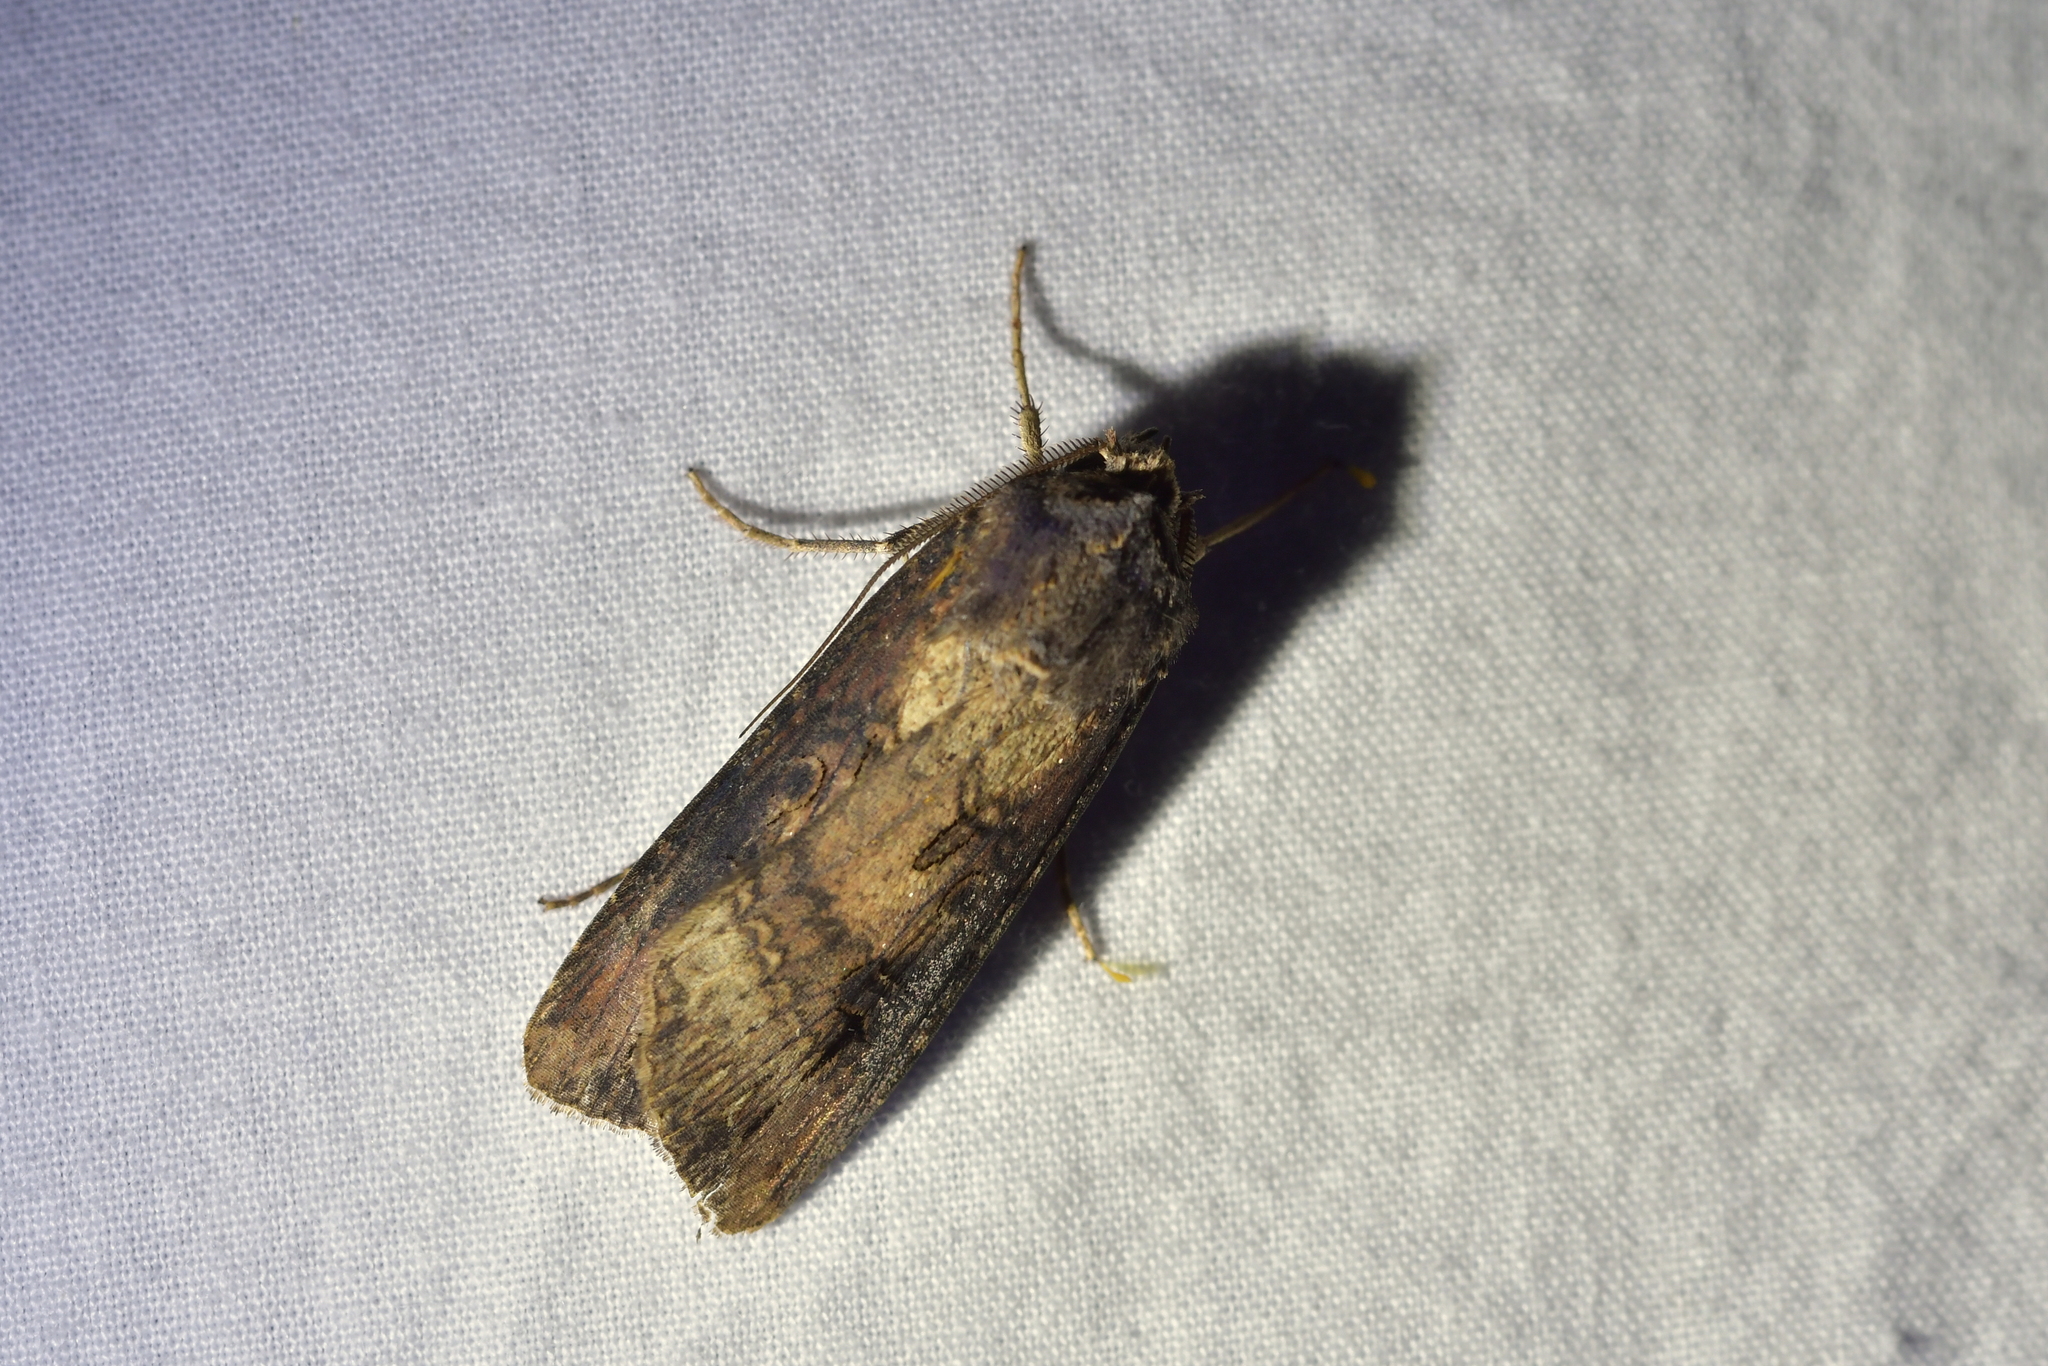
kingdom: Animalia
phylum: Arthropoda
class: Insecta
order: Lepidoptera
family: Noctuidae
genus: Agrotis
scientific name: Agrotis ipsilon
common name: Dark sword-grass
